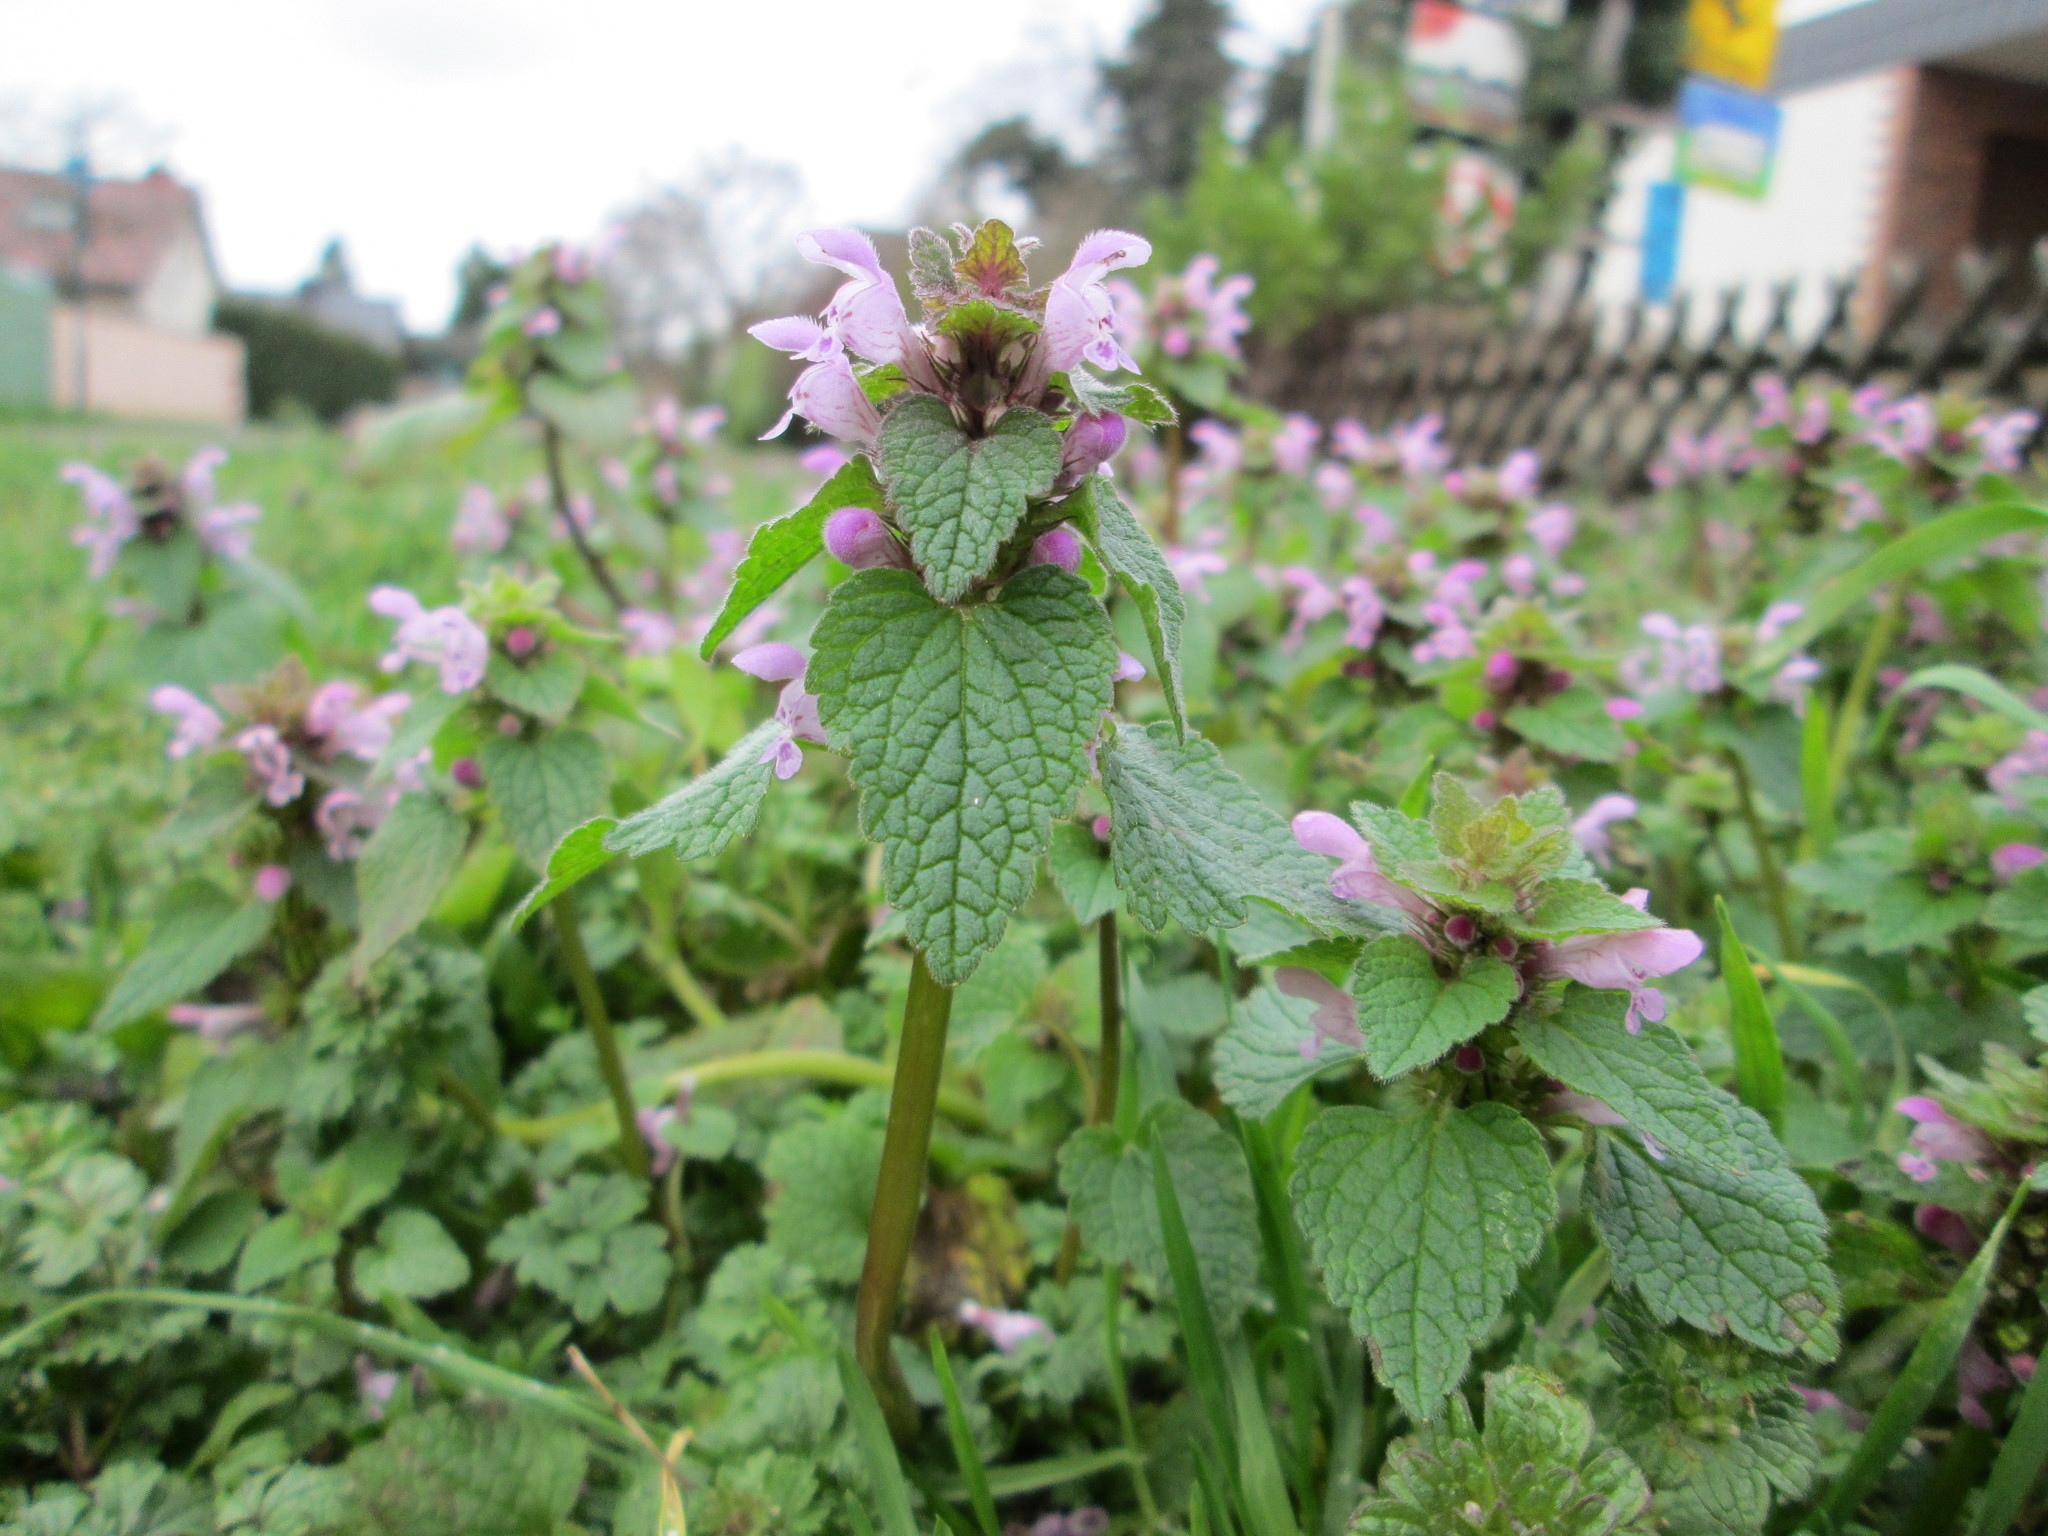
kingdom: Plantae
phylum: Tracheophyta
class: Magnoliopsida
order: Lamiales
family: Lamiaceae
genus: Lamium
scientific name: Lamium purpureum
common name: Red dead-nettle
